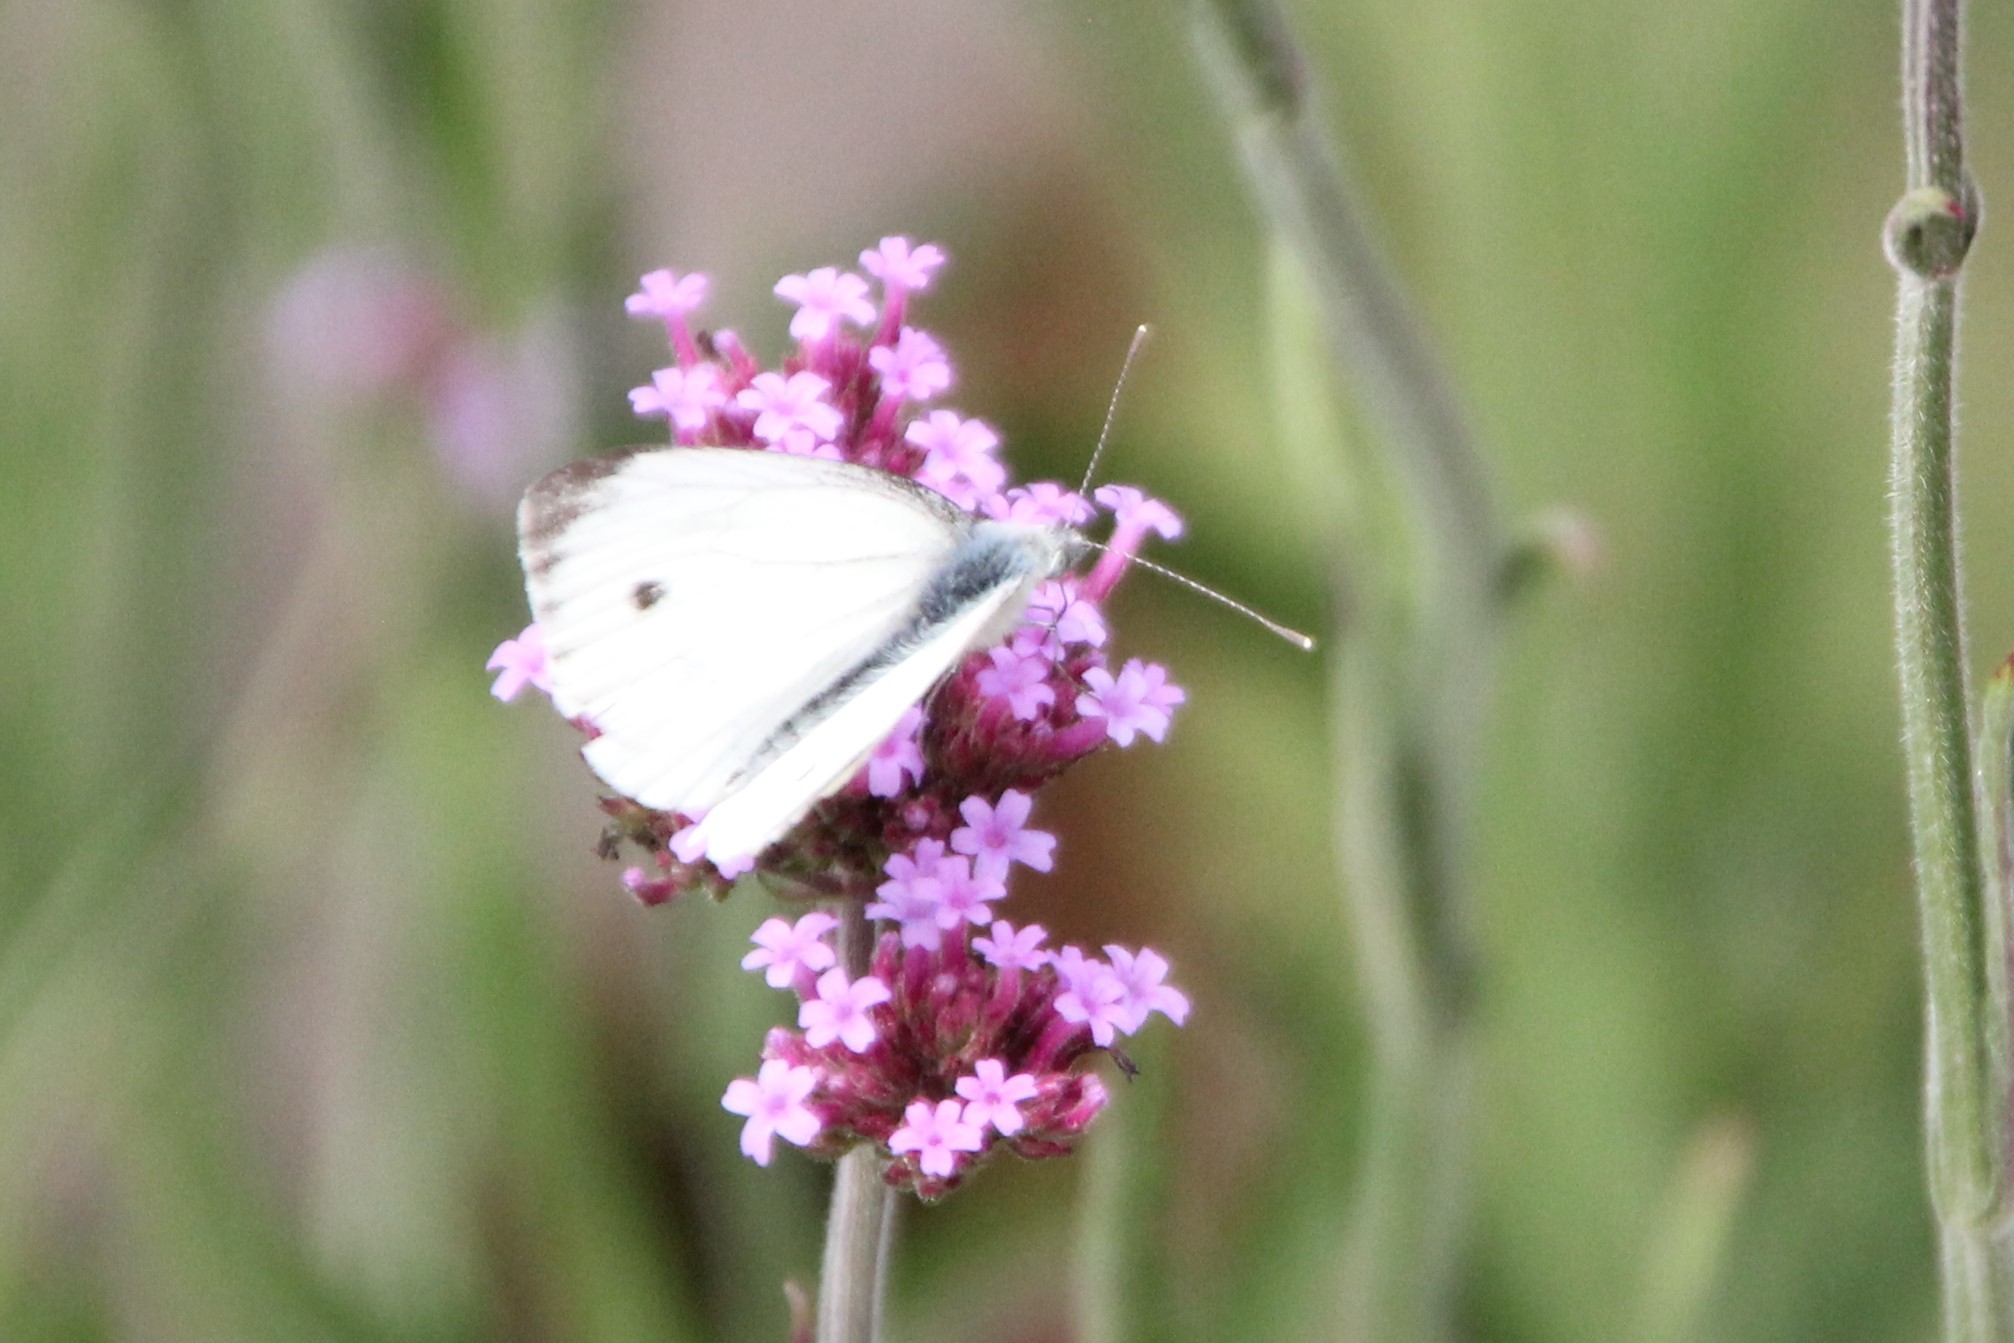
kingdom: Animalia
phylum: Arthropoda
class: Insecta
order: Lepidoptera
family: Pieridae
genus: Pieris
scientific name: Pieris napi
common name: Green-veined white
